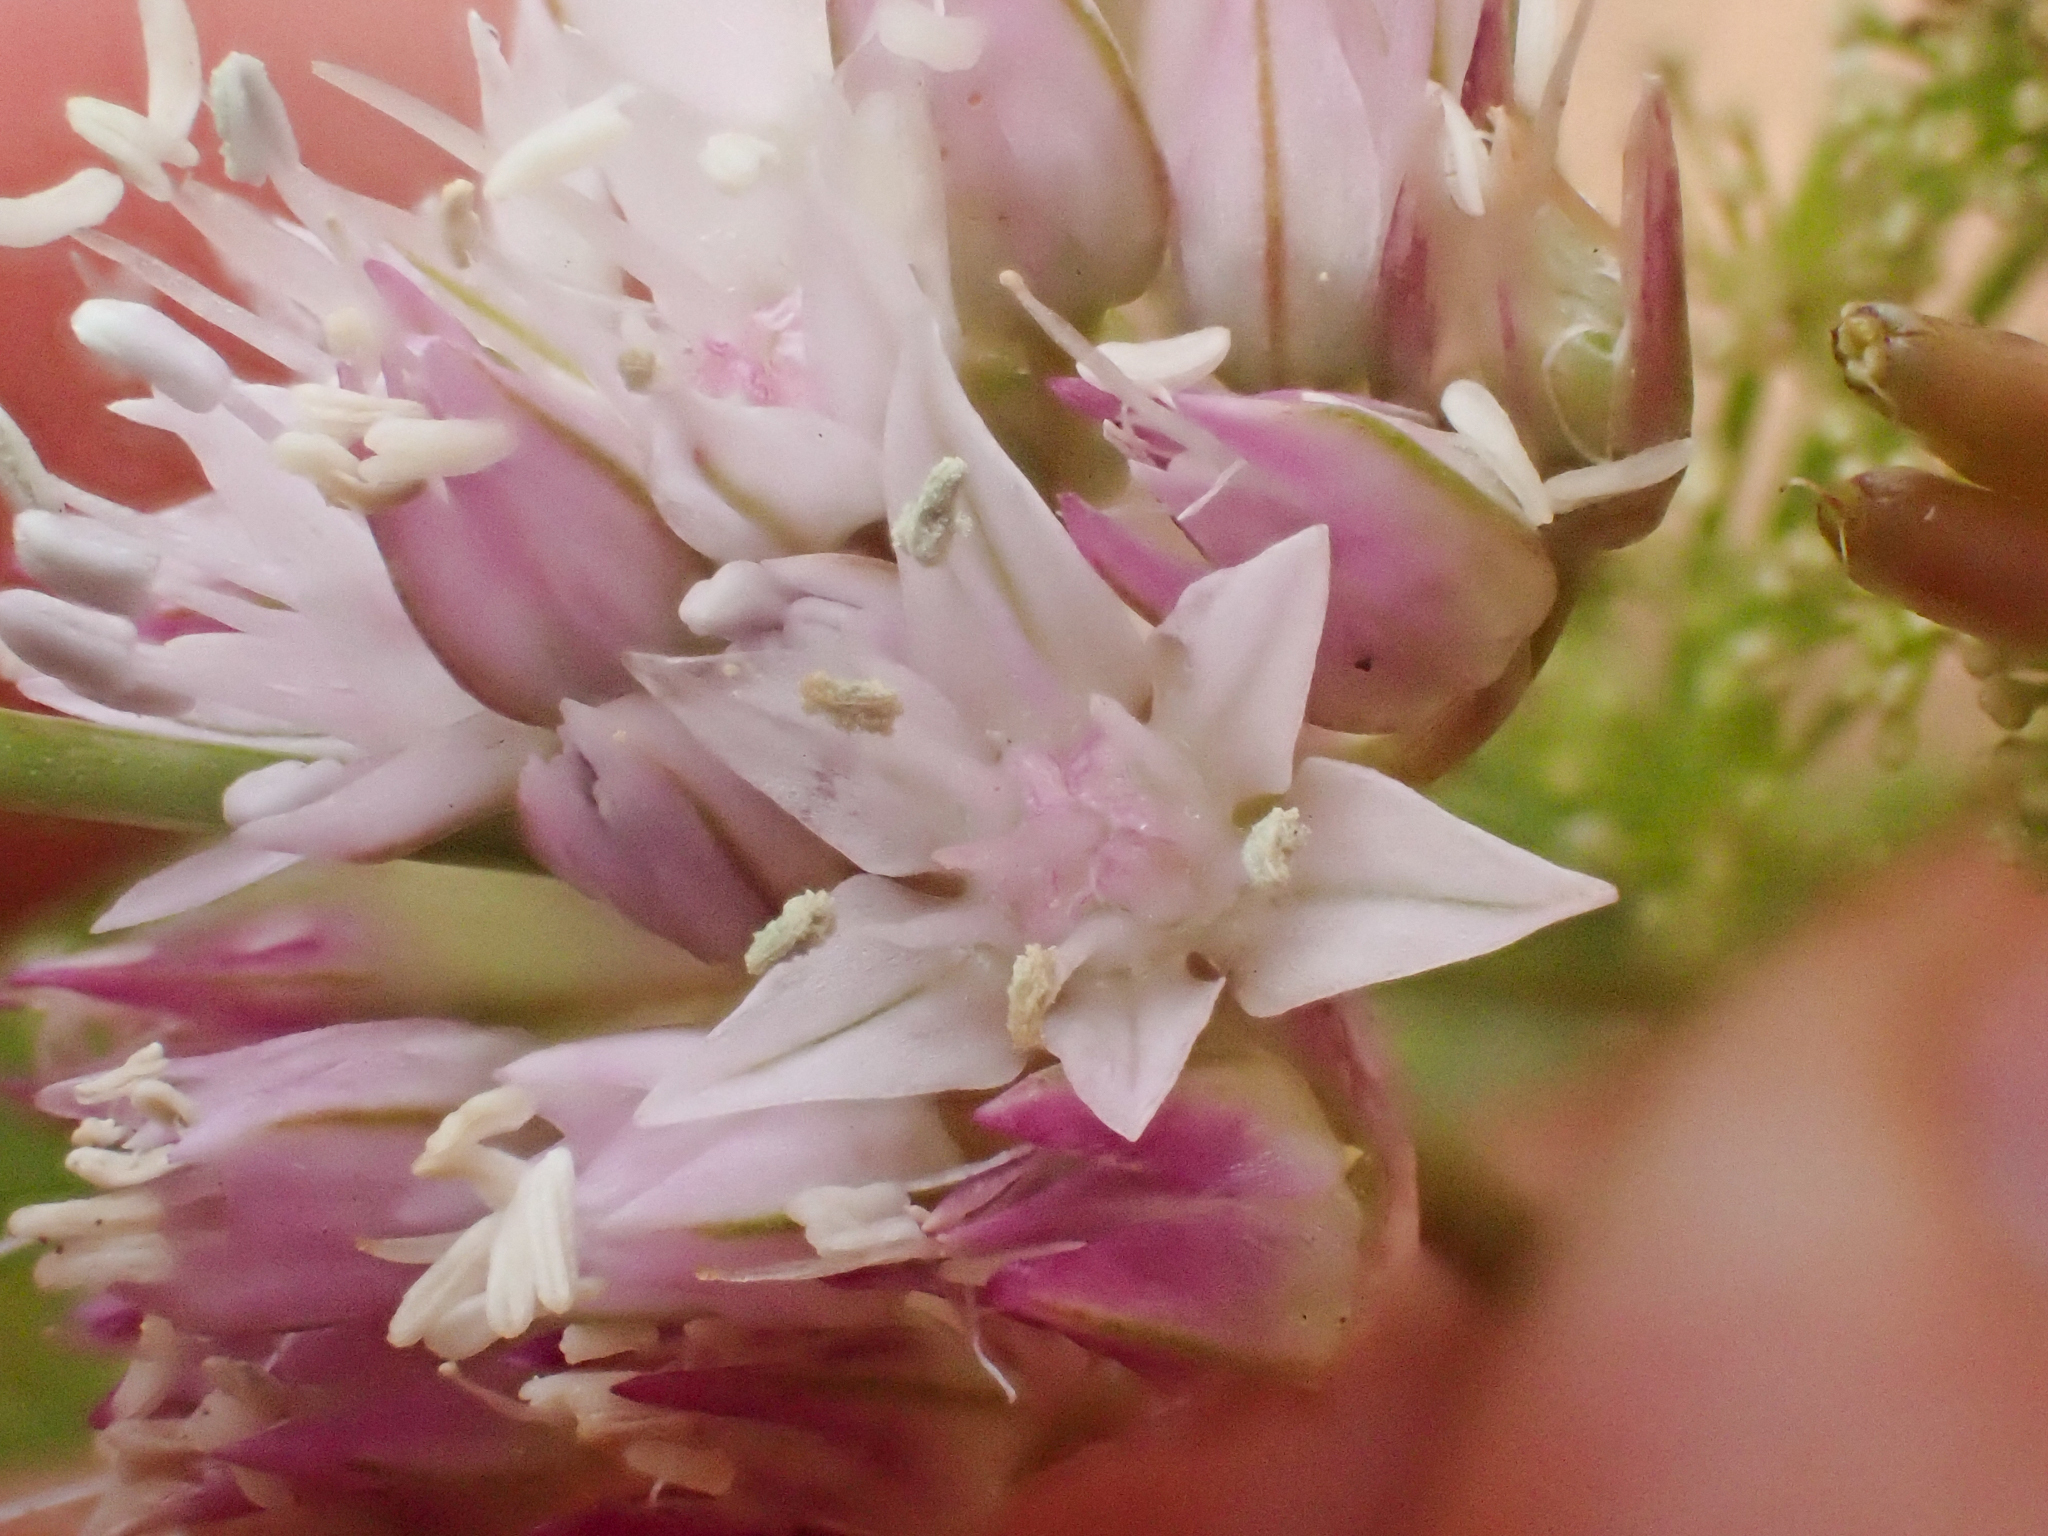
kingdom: Plantae
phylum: Tracheophyta
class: Liliopsida
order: Asparagales
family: Amaryllidaceae
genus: Allium
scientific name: Allium lemmonii
